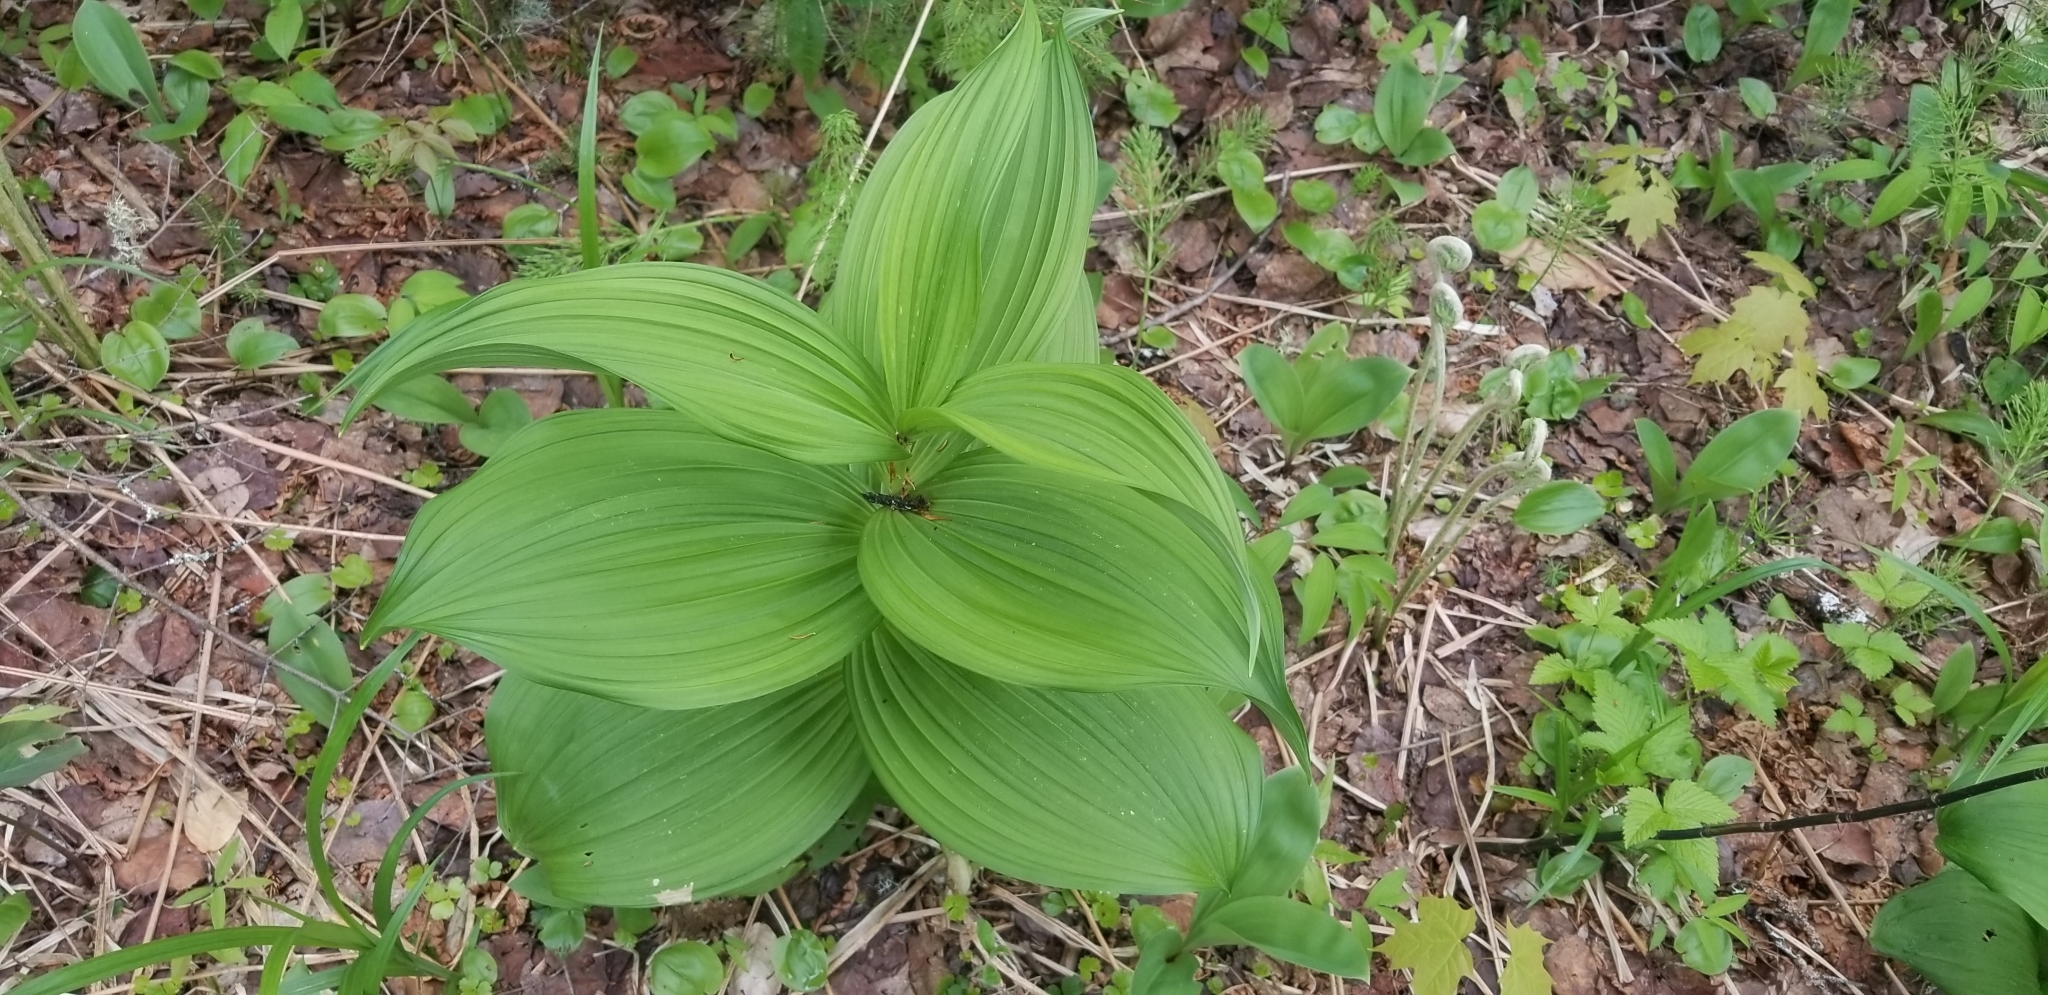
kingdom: Plantae
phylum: Tracheophyta
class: Liliopsida
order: Liliales
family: Melanthiaceae
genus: Veratrum
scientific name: Veratrum viride
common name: American false hellebore
